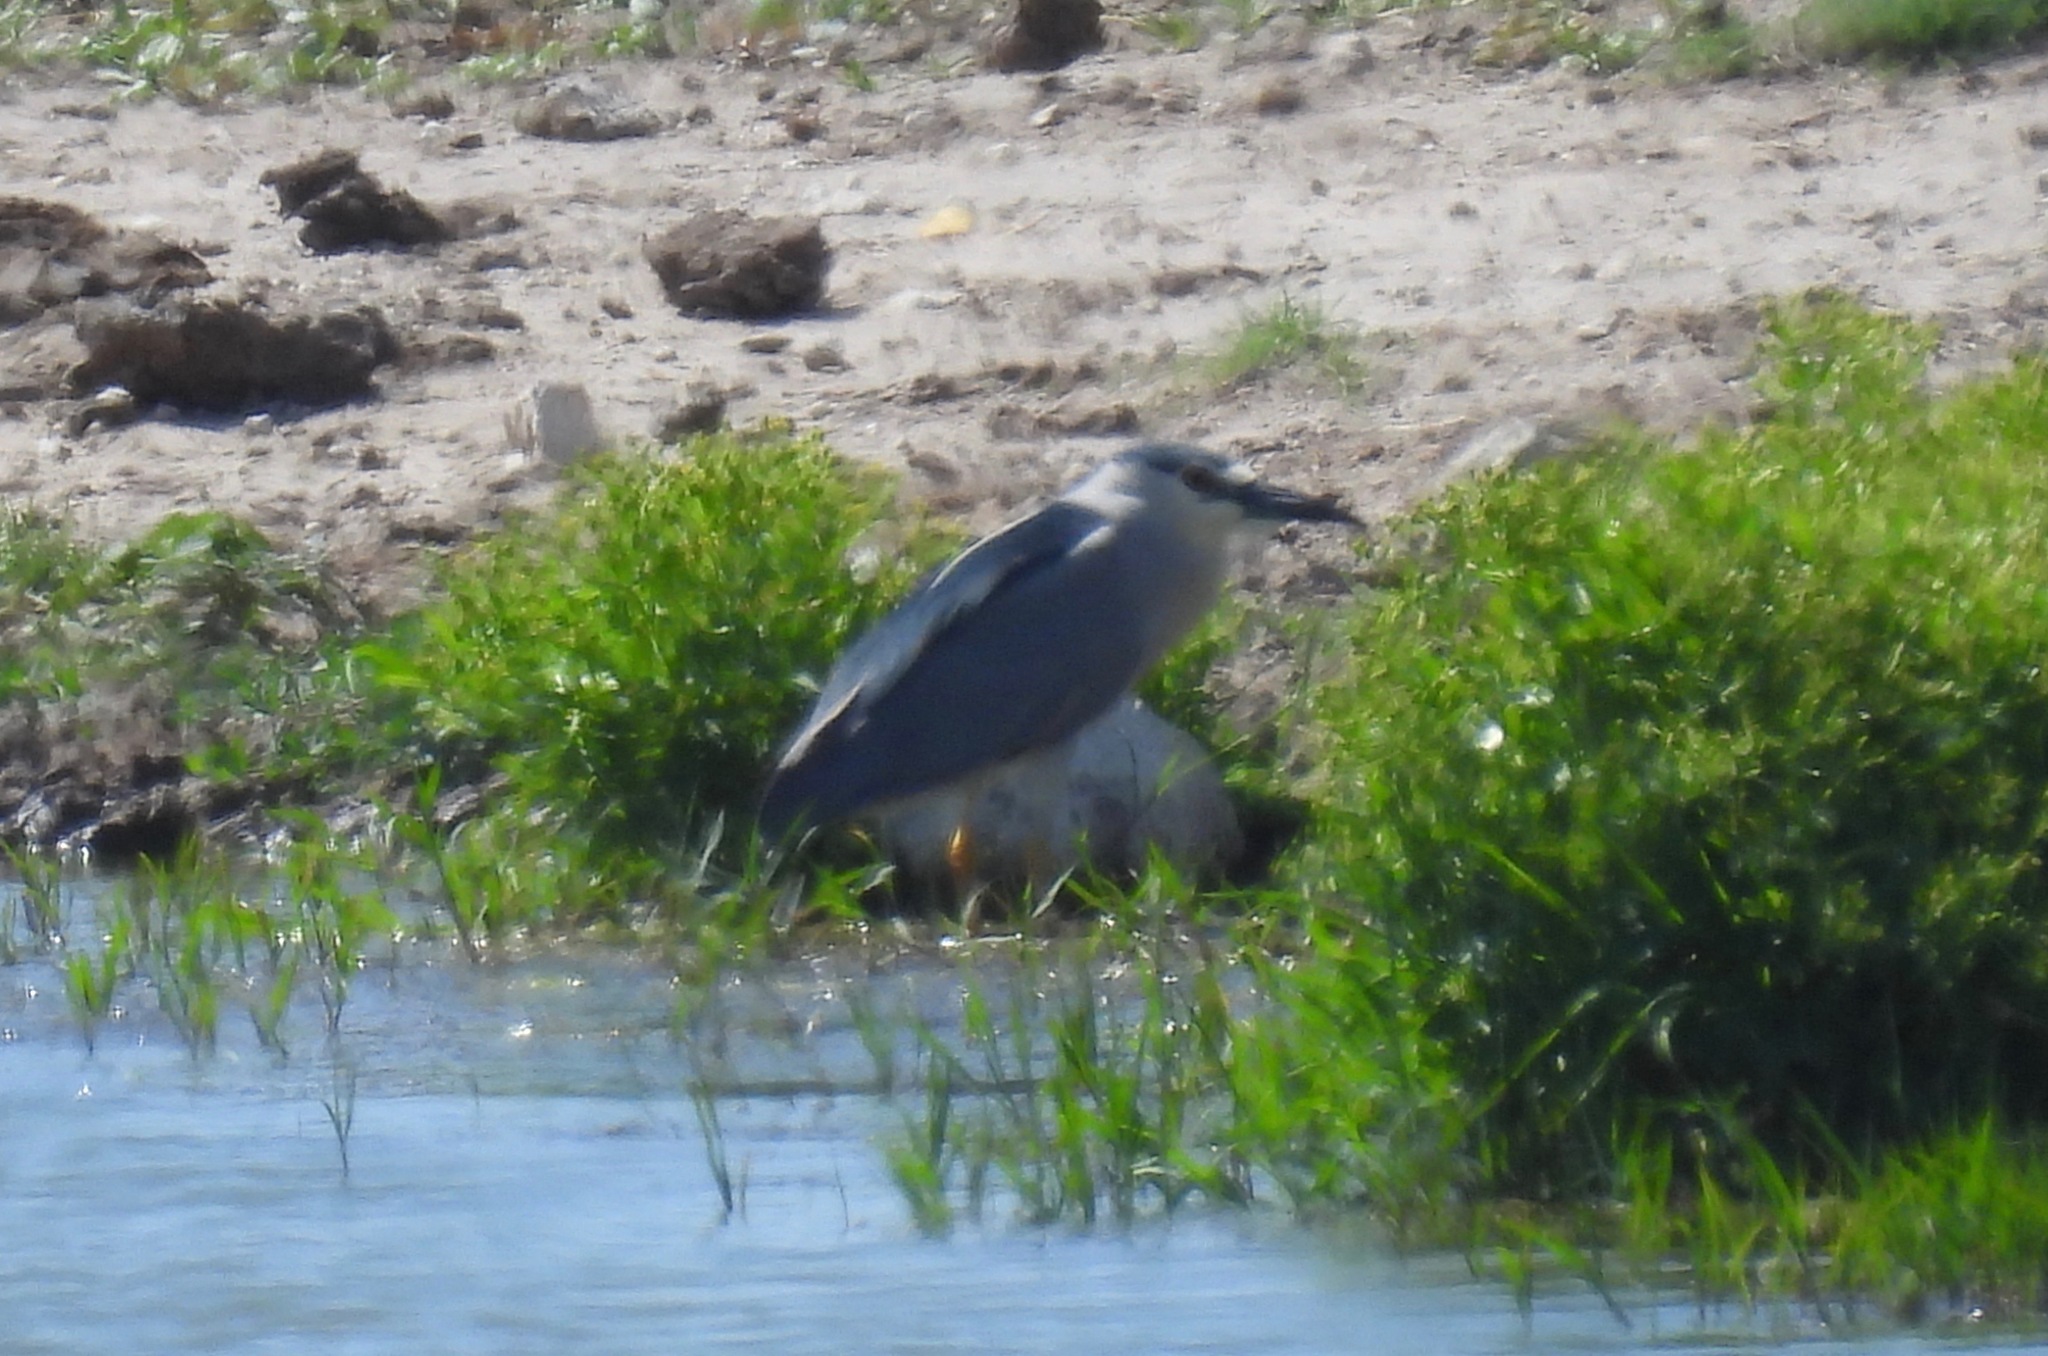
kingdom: Animalia
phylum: Chordata
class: Aves
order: Pelecaniformes
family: Ardeidae
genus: Nycticorax
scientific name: Nycticorax nycticorax
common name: Black-crowned night heron
